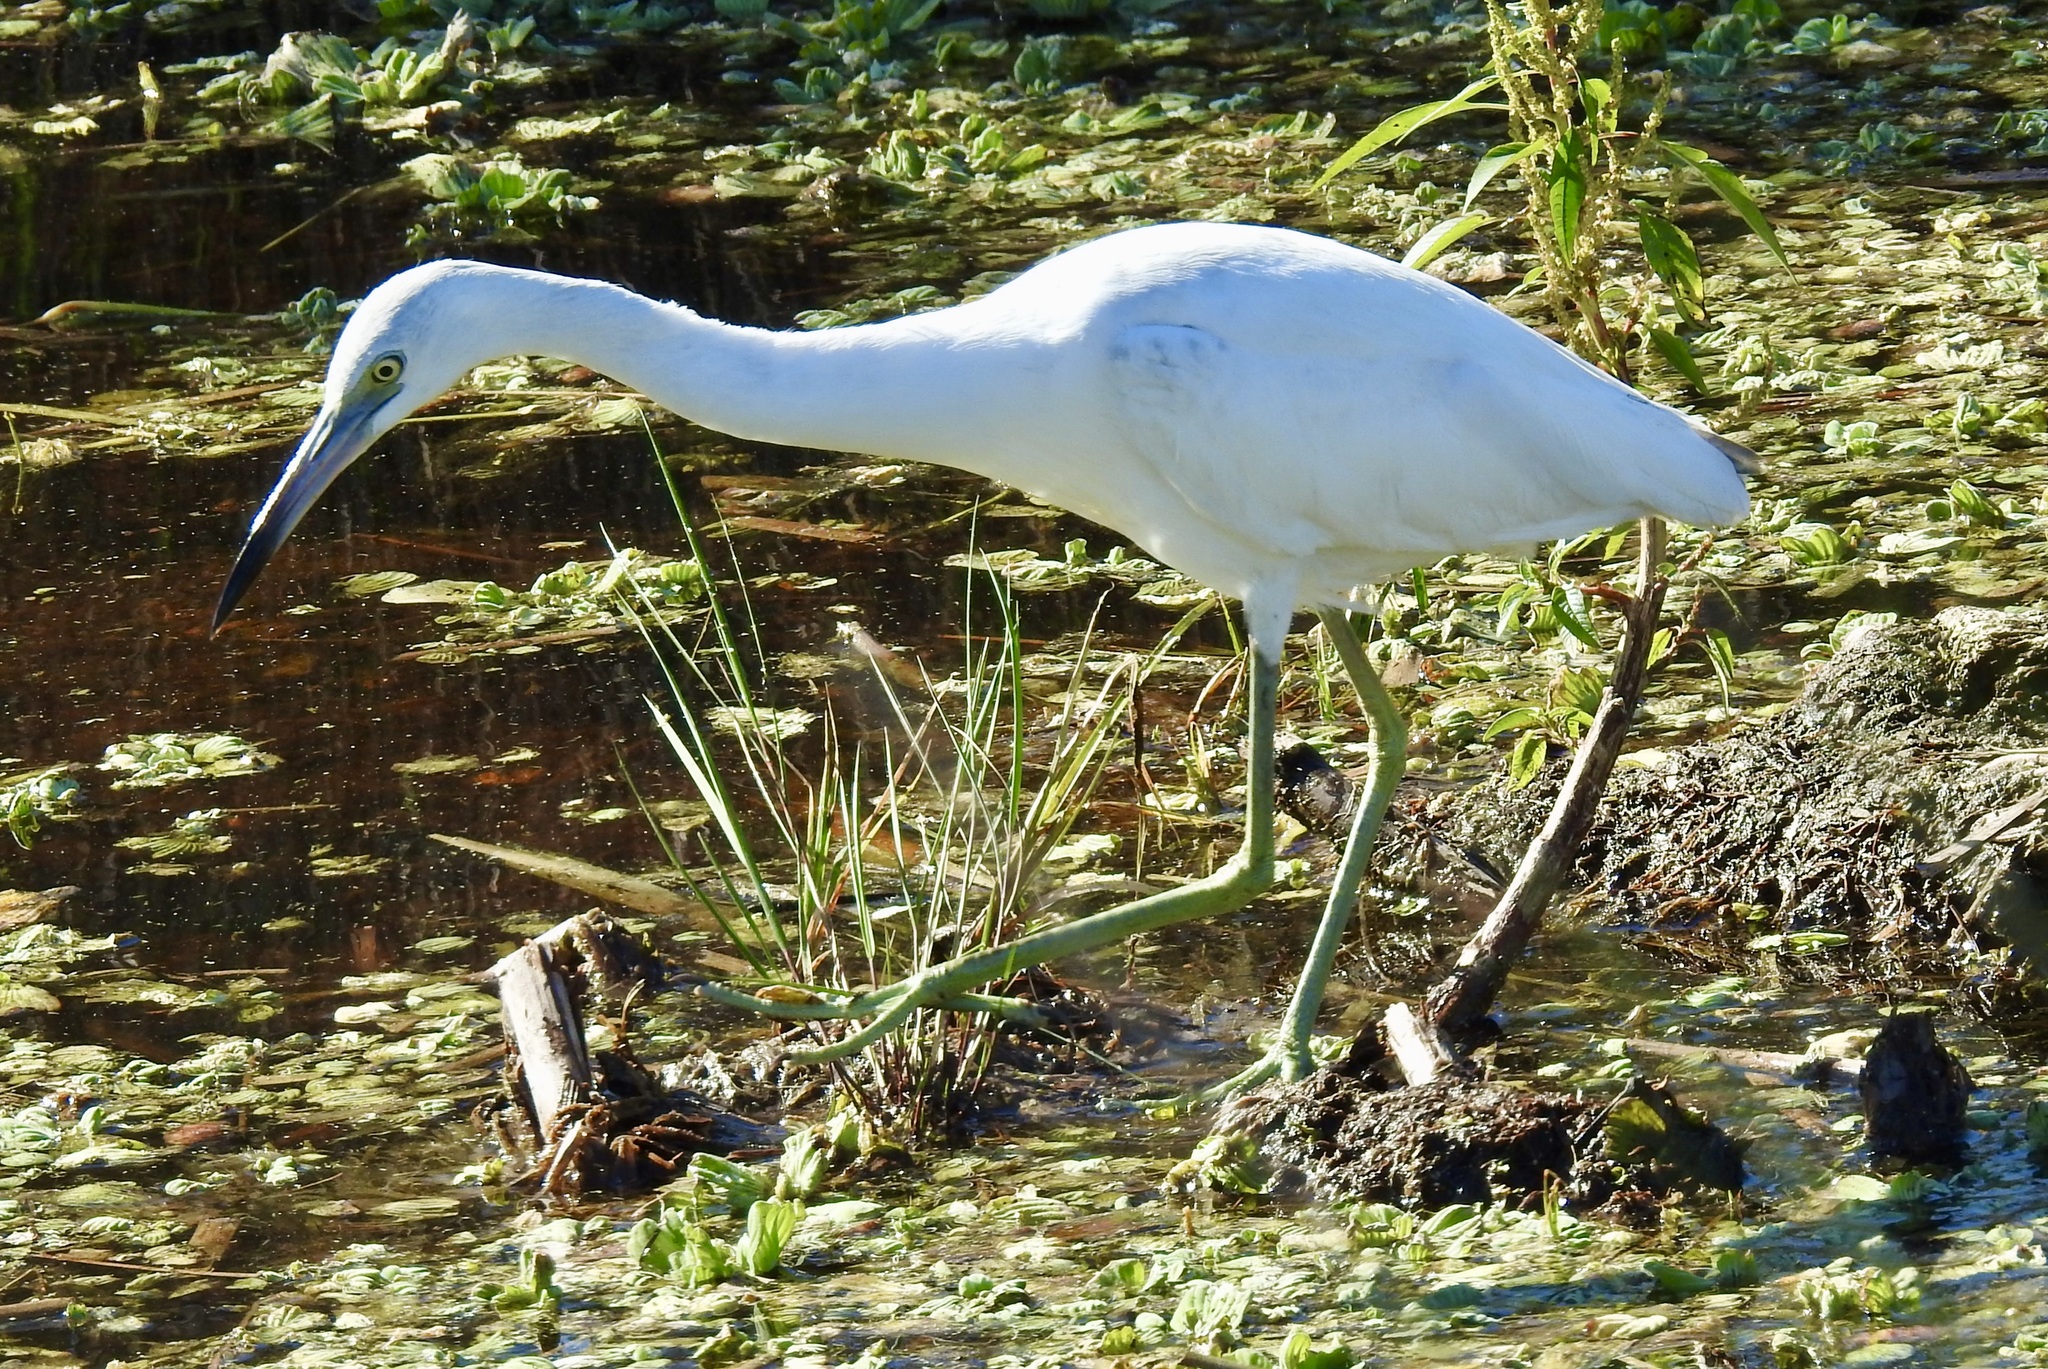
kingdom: Animalia
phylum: Chordata
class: Aves
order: Pelecaniformes
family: Ardeidae
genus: Egretta
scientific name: Egretta caerulea
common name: Little blue heron
